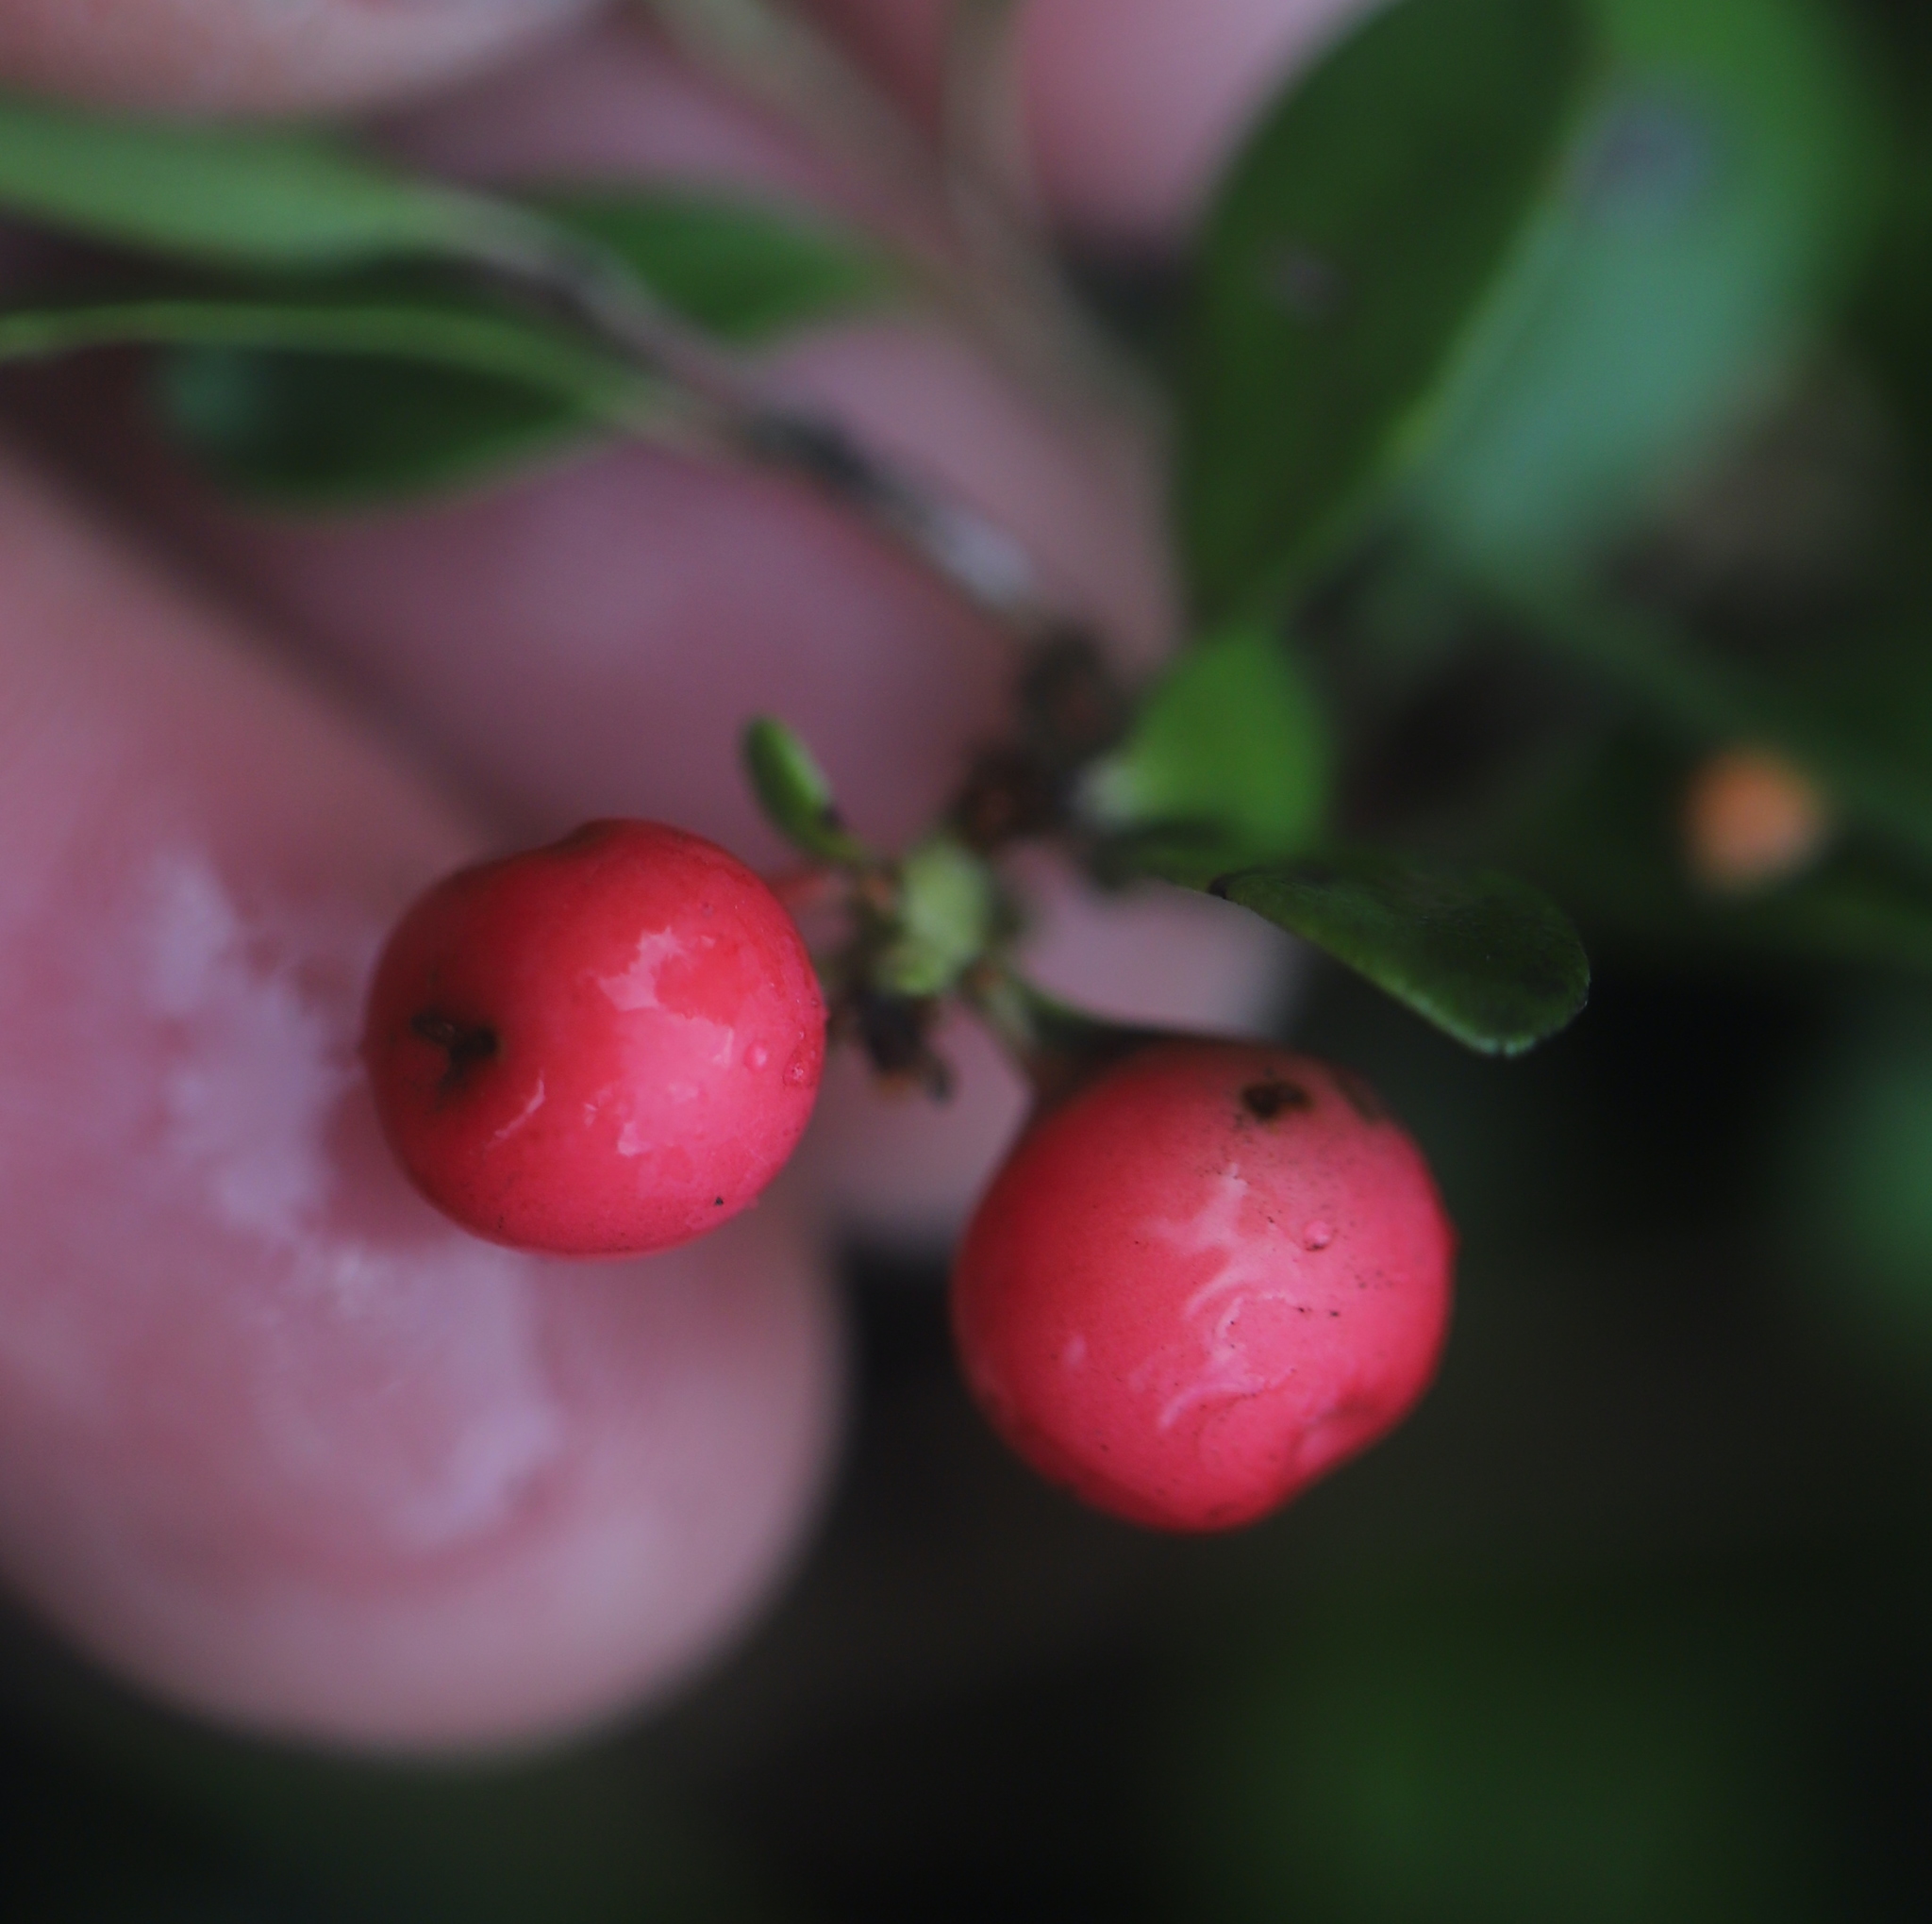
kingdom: Plantae
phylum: Tracheophyta
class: Magnoliopsida
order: Ericales
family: Ericaceae
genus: Arctostaphylos
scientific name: Arctostaphylos uva-ursi
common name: Bearberry
